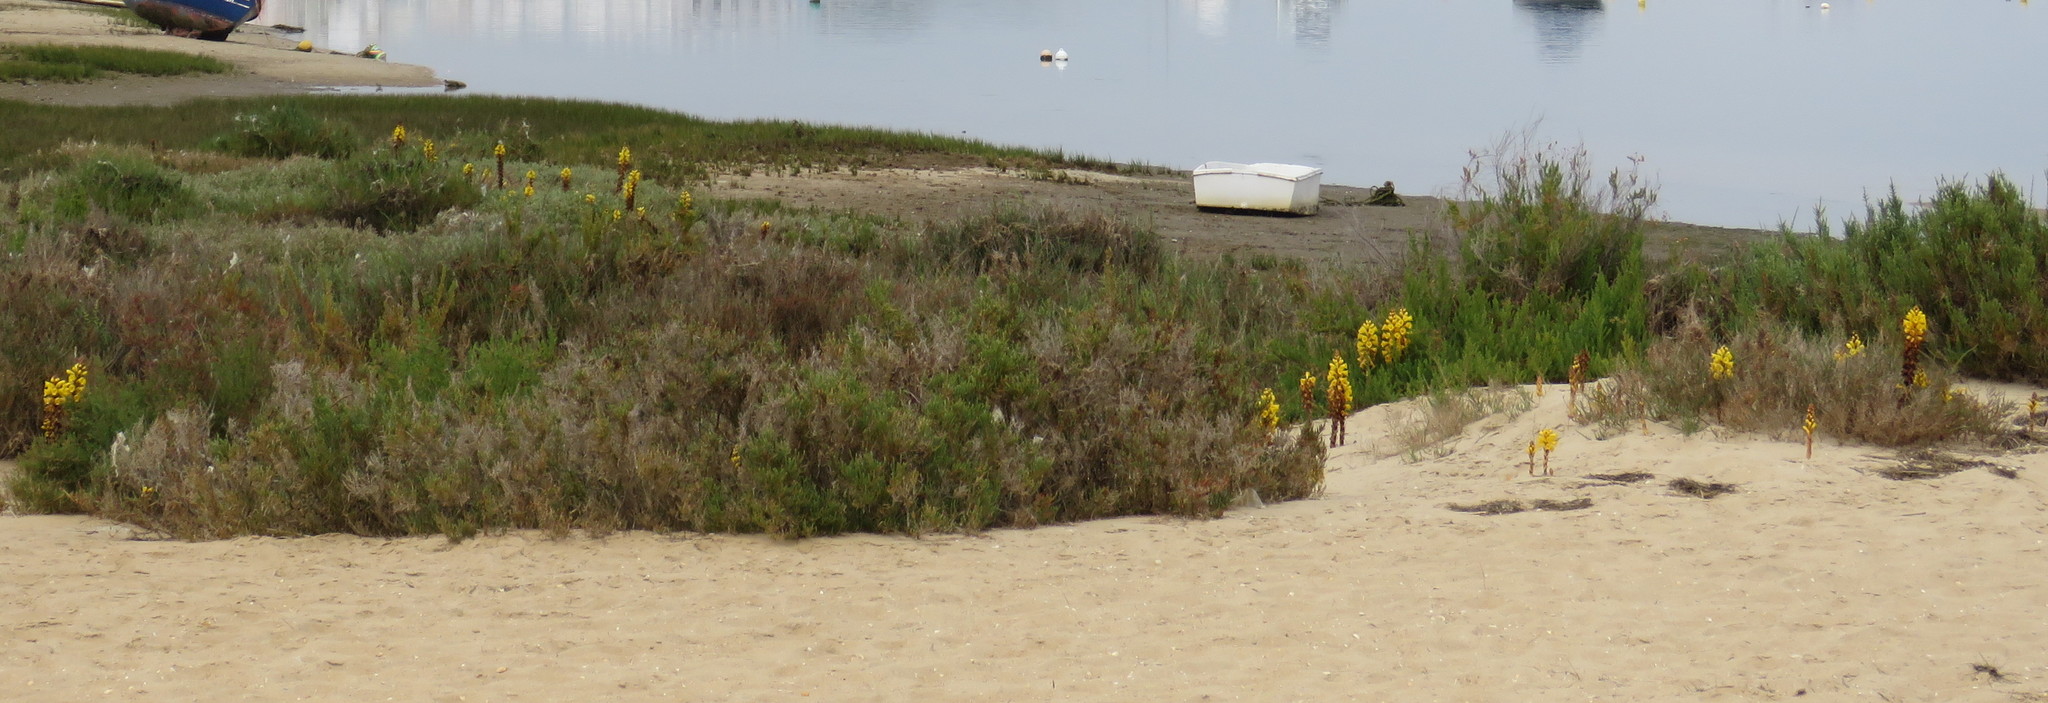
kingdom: Plantae
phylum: Tracheophyta
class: Magnoliopsida
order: Lamiales
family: Orobanchaceae
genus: Cistanche
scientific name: Cistanche phelypaea
